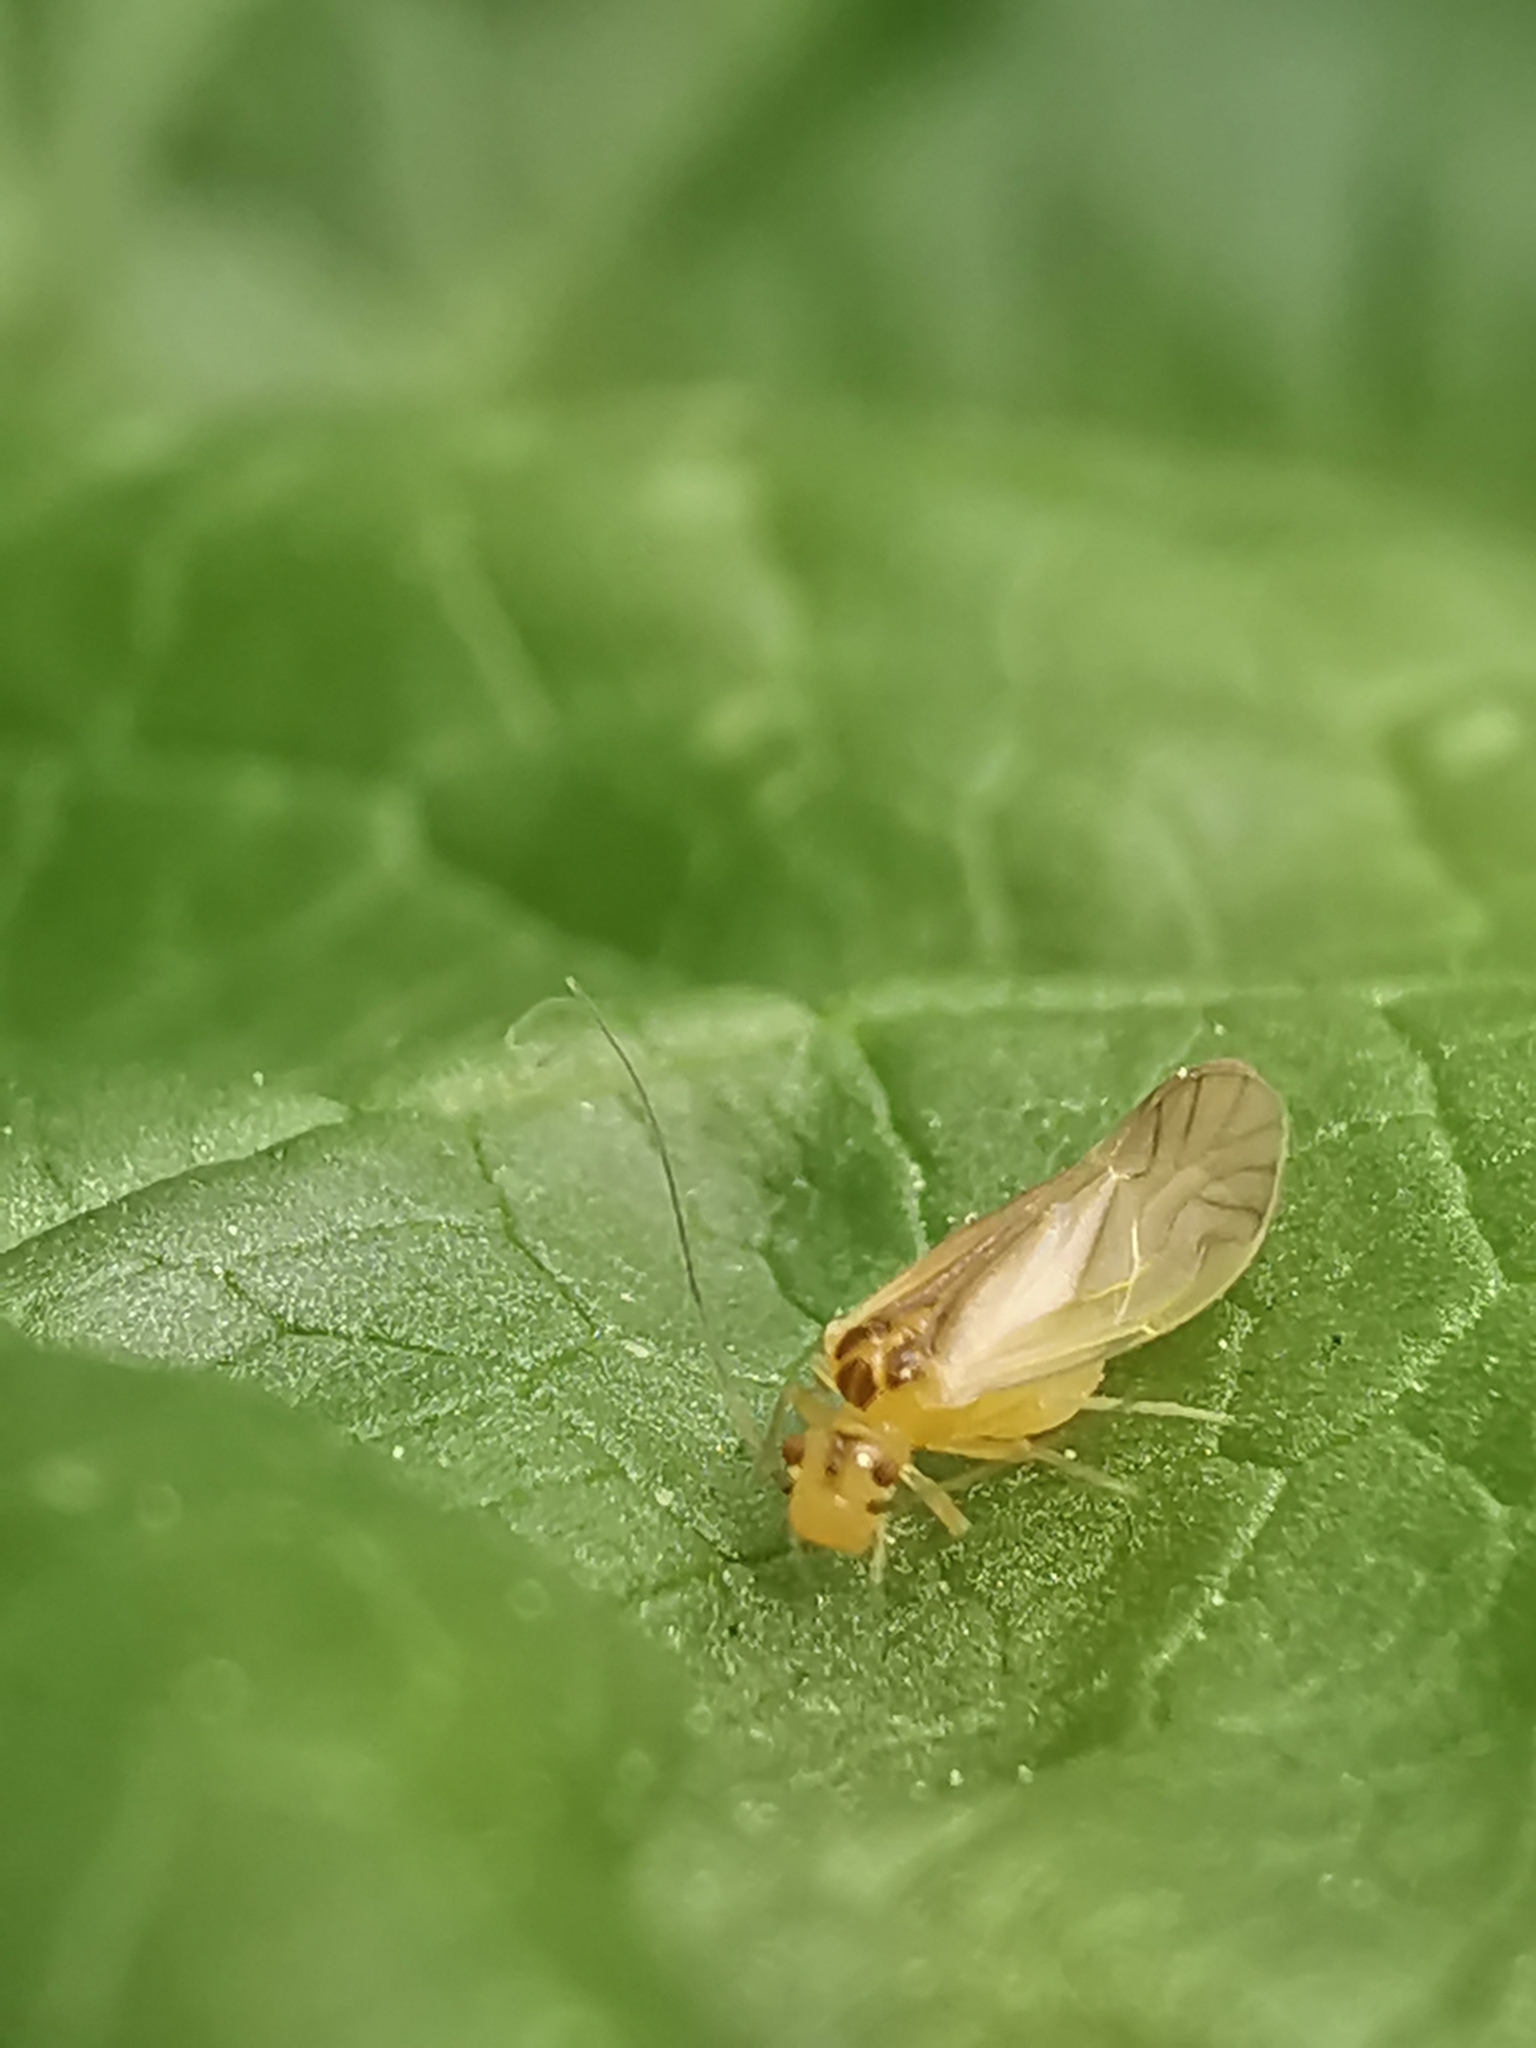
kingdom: Animalia
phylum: Arthropoda
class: Insecta
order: Psocodea
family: Caeciliusidae
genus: Valenzuela
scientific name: Valenzuela flavidus
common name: Yellow barklouse
